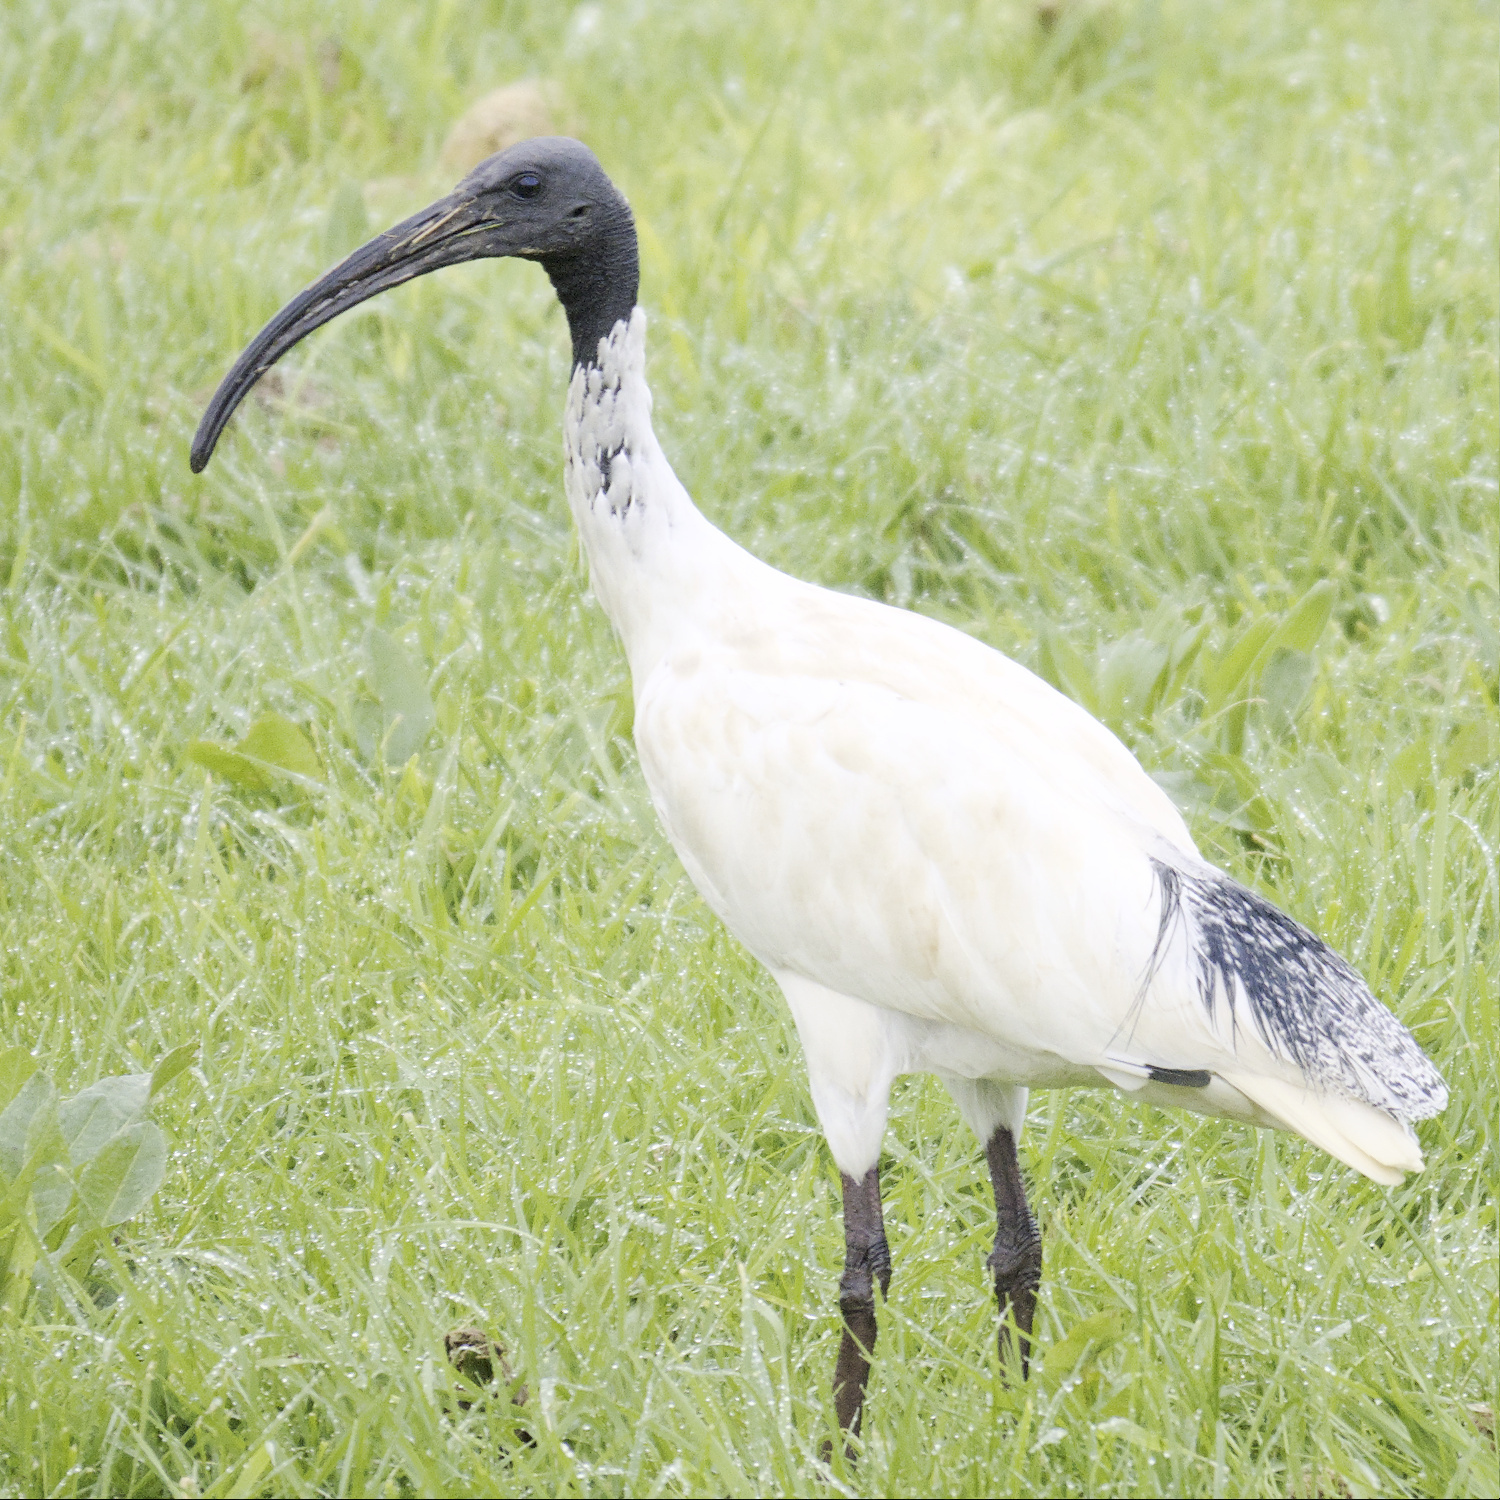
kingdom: Animalia
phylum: Chordata
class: Aves
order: Pelecaniformes
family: Threskiornithidae
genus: Threskiornis
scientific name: Threskiornis molucca
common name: Australian white ibis
